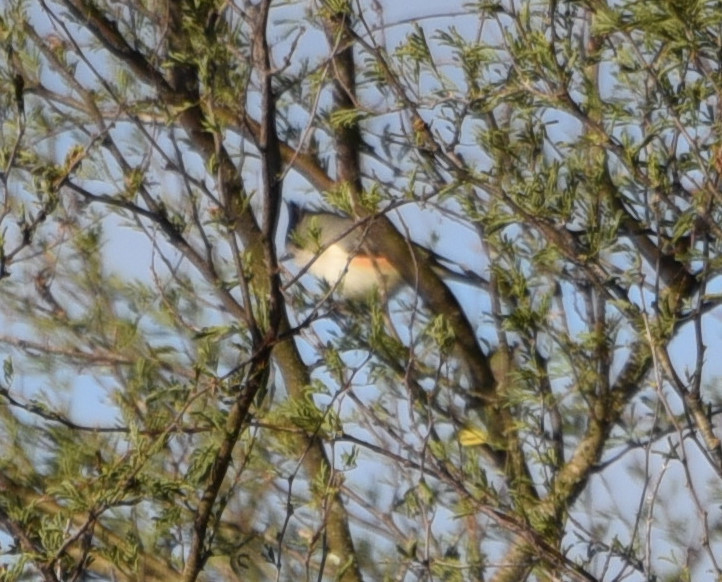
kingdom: Animalia
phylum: Chordata
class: Aves
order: Passeriformes
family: Paridae
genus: Baeolophus
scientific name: Baeolophus atricristatus
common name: Black-crested titmouse
